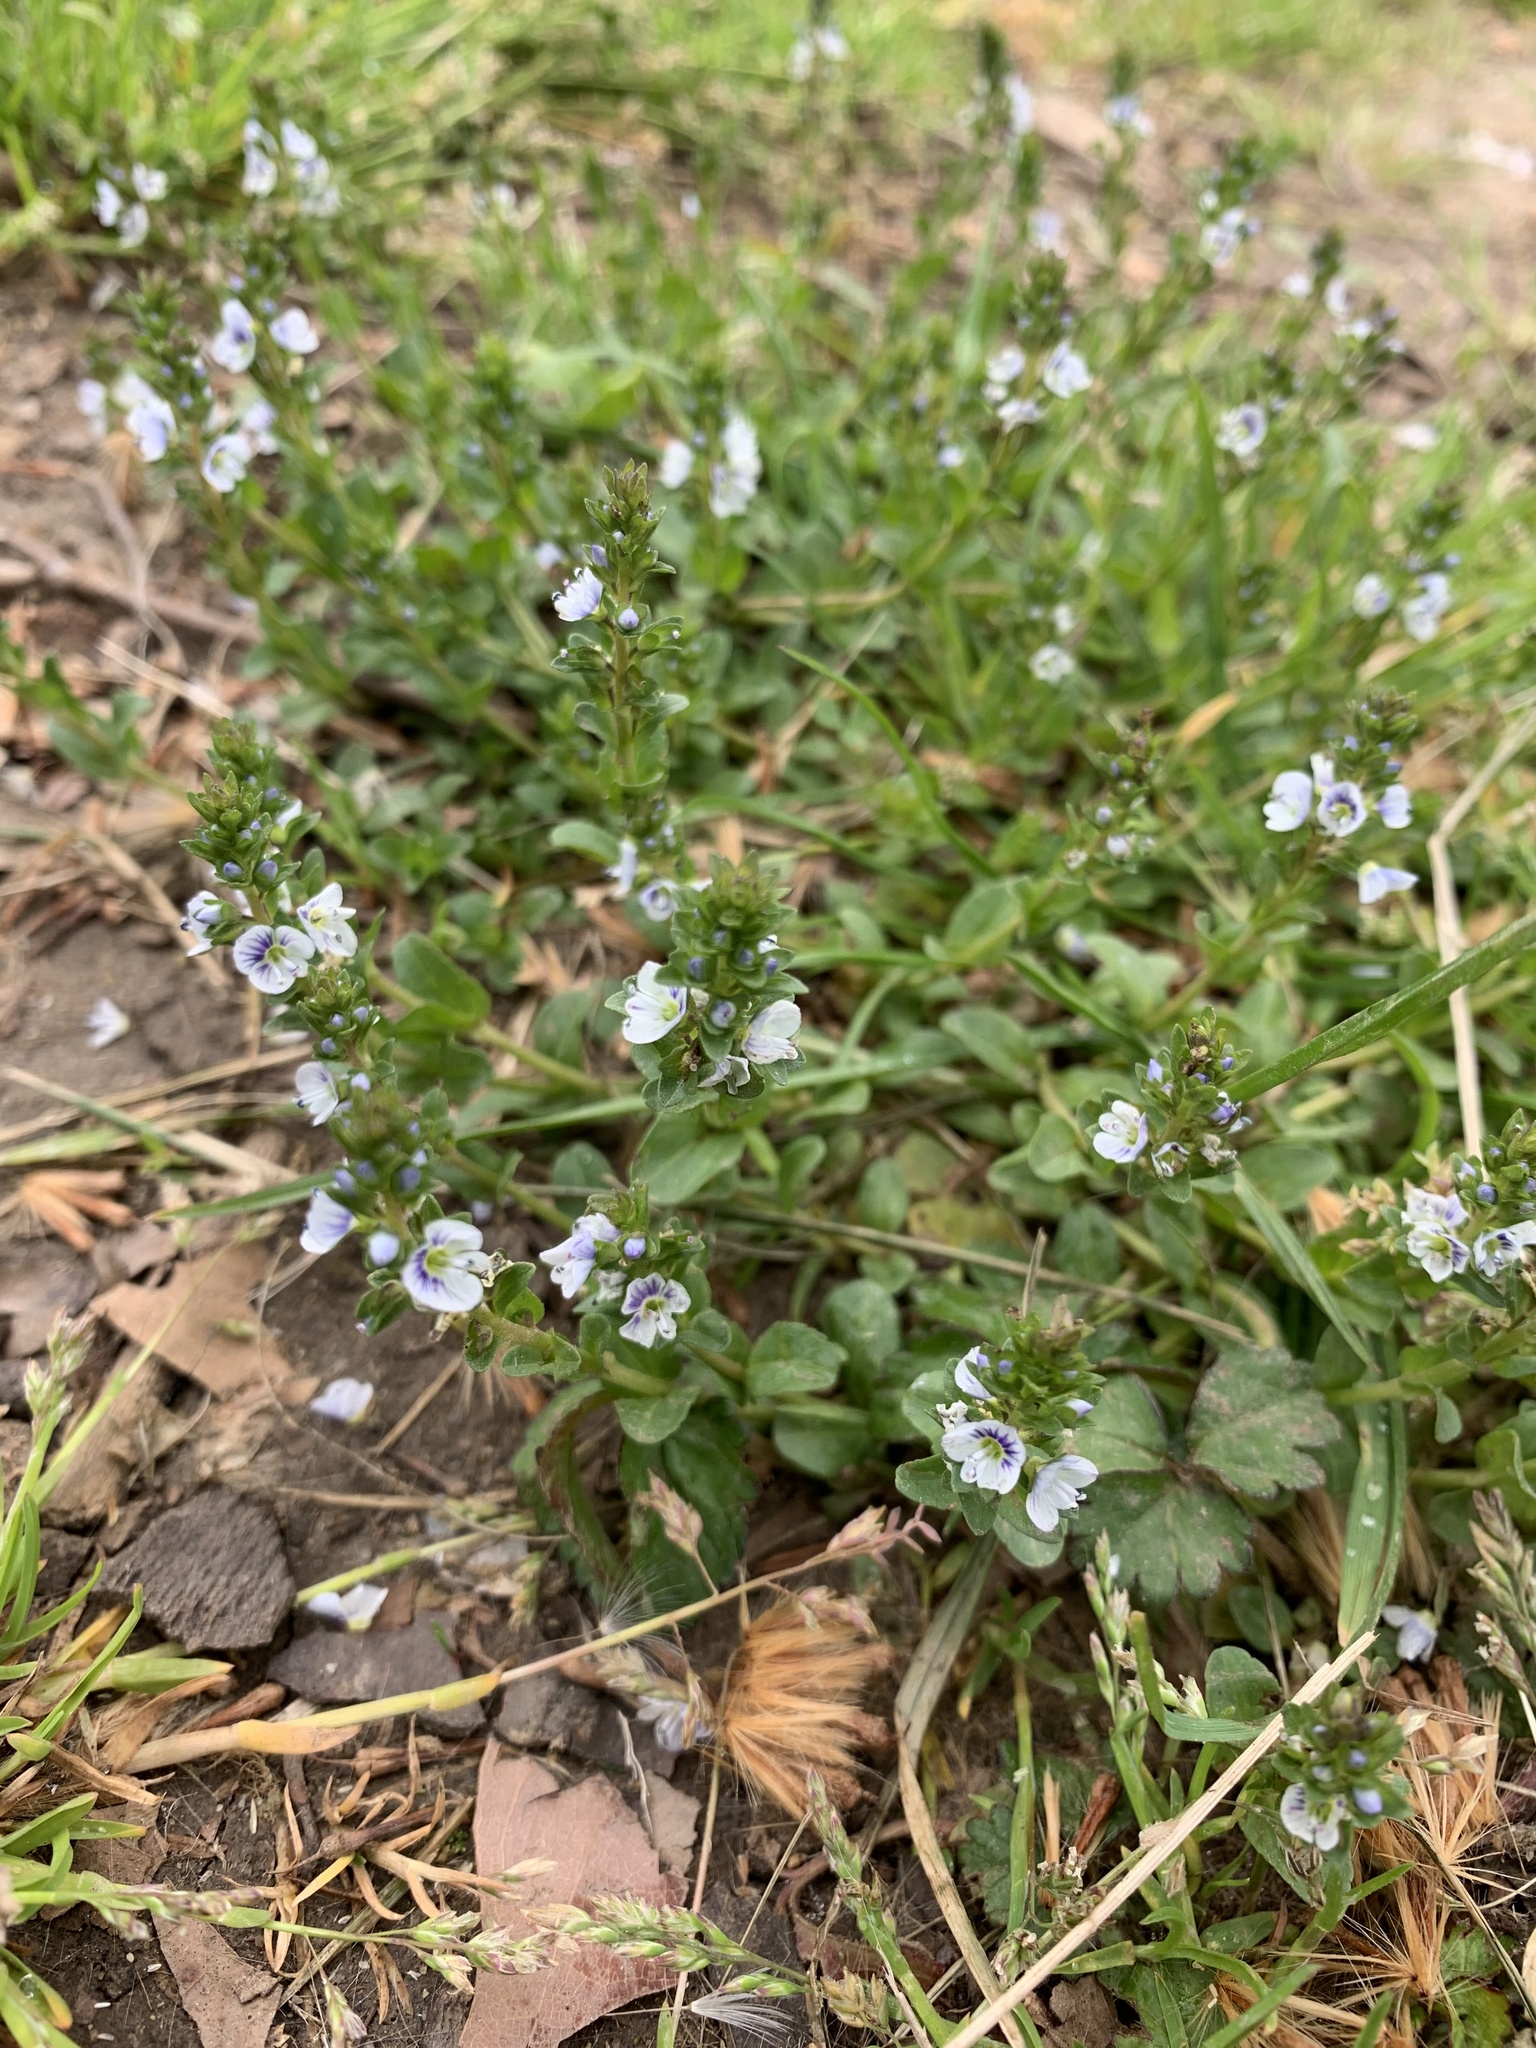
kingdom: Plantae
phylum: Tracheophyta
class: Magnoliopsida
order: Lamiales
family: Plantaginaceae
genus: Veronica
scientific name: Veronica serpyllifolia
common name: Thyme-leaved speedwell
